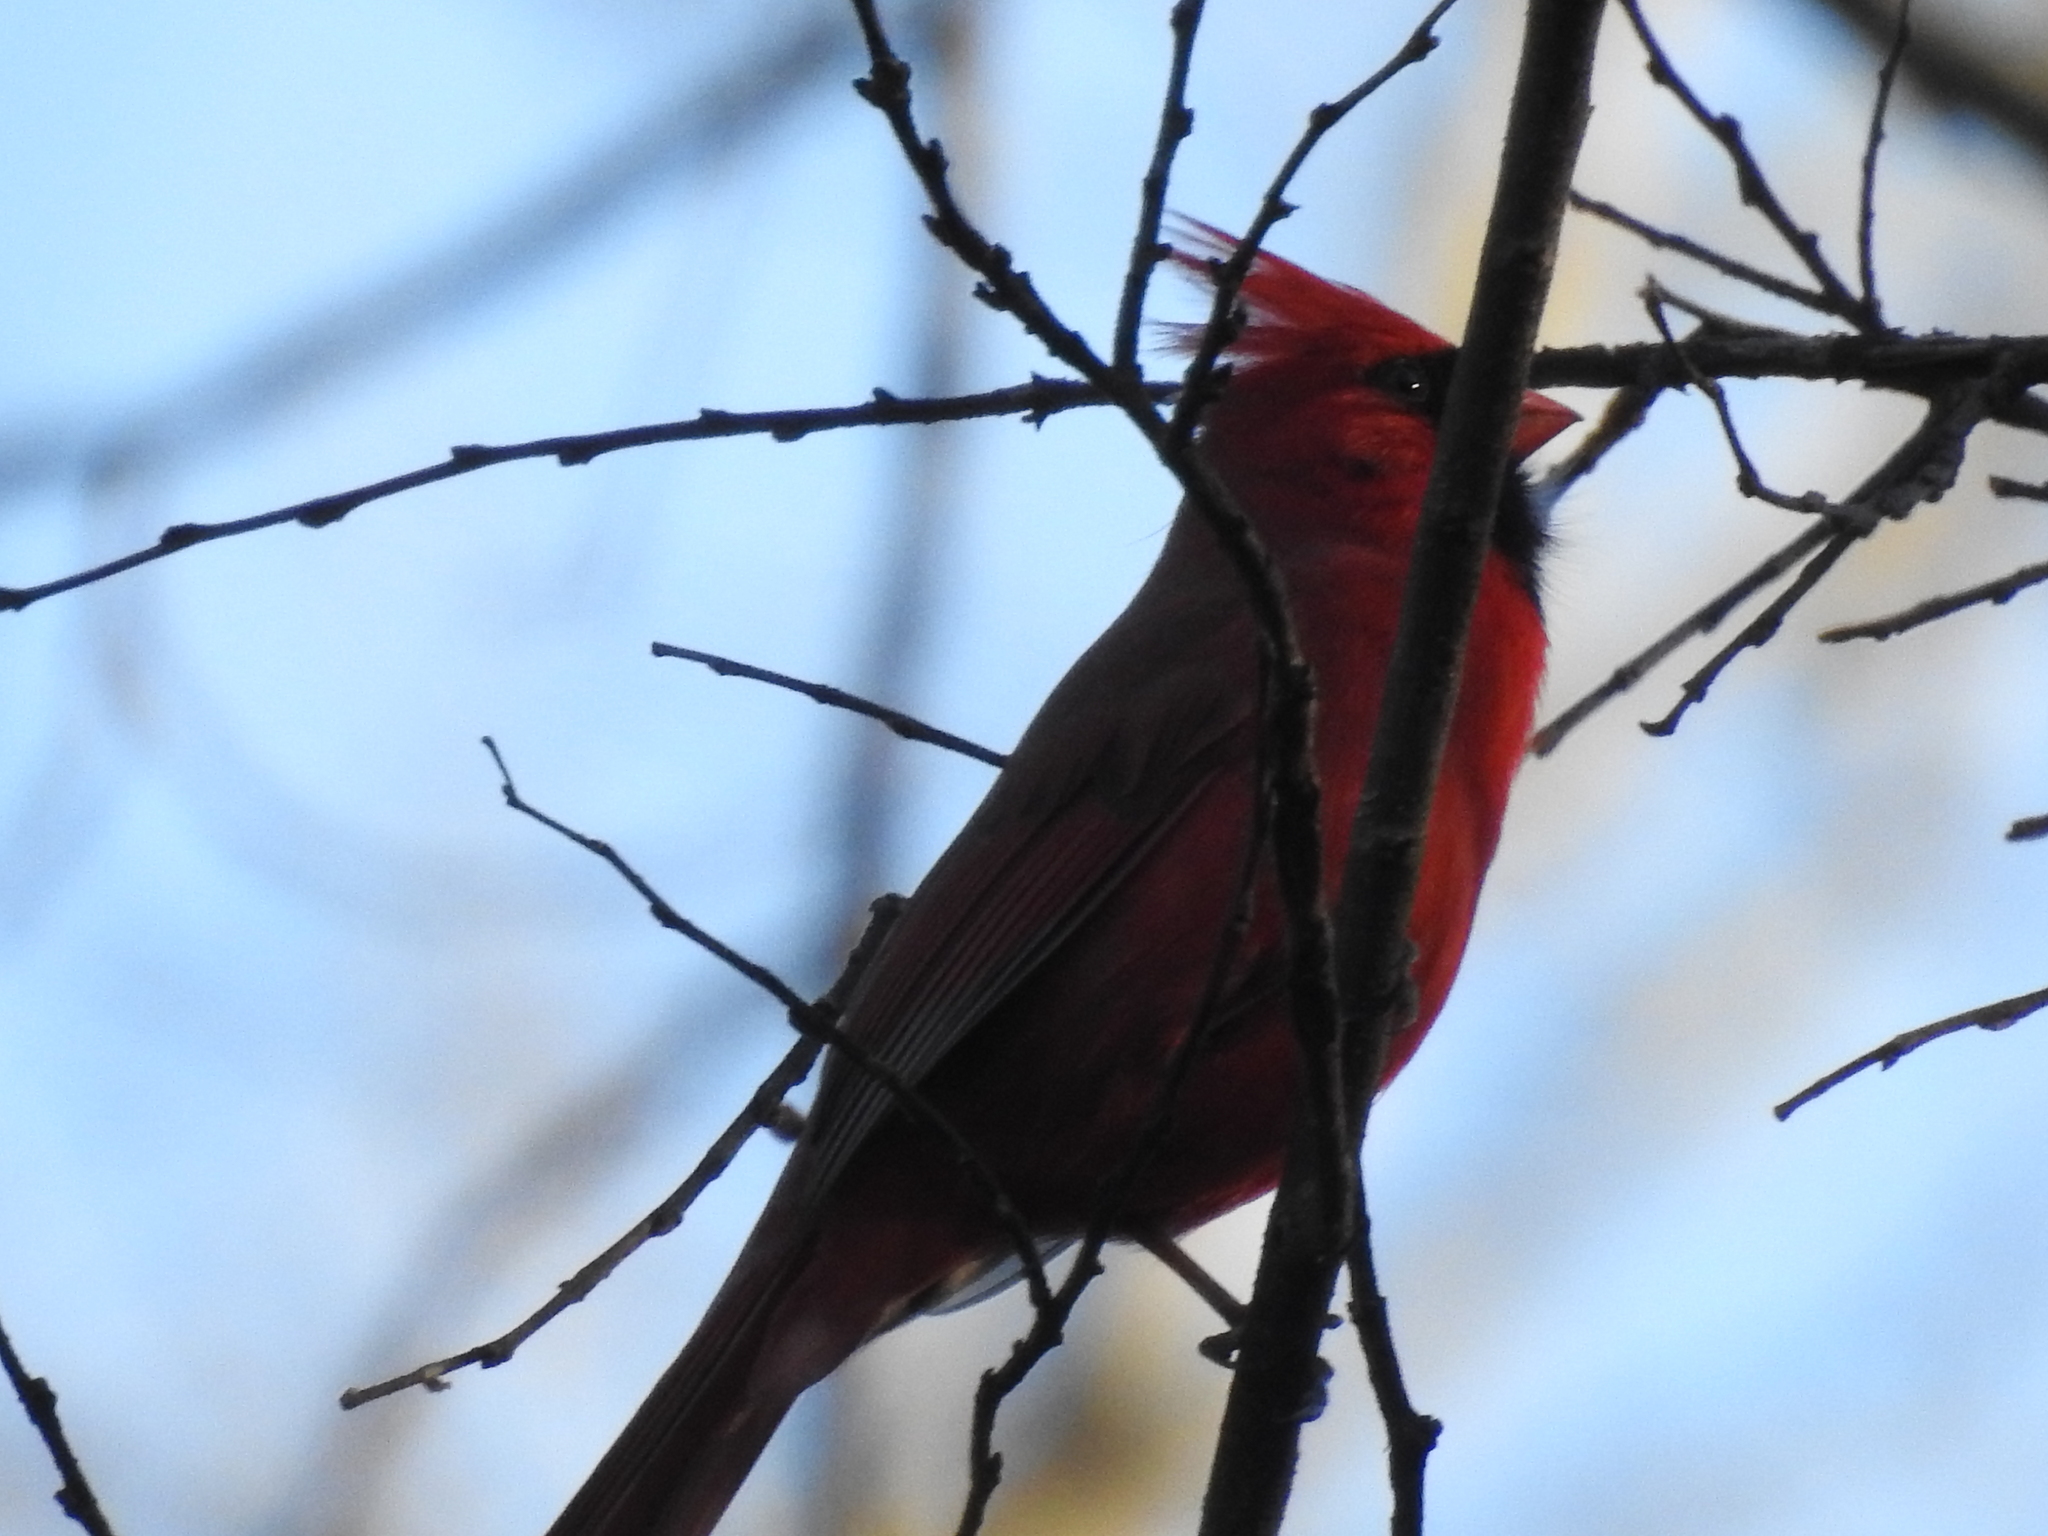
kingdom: Animalia
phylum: Chordata
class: Aves
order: Passeriformes
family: Cardinalidae
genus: Cardinalis
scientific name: Cardinalis cardinalis
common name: Northern cardinal
